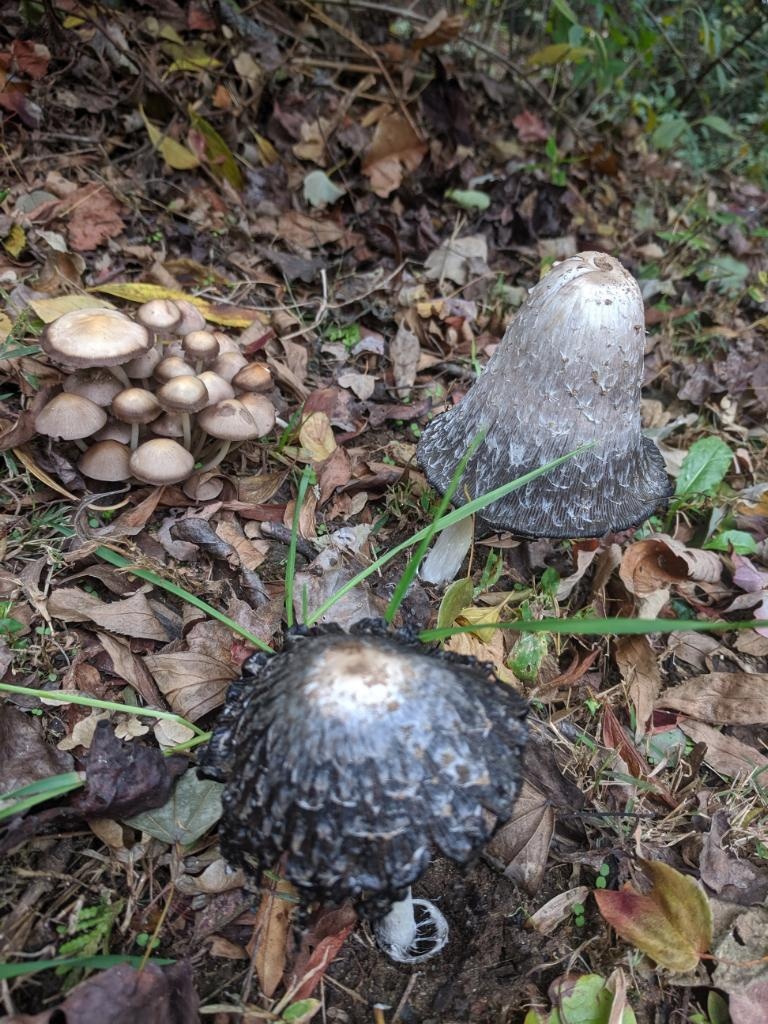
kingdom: Fungi
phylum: Basidiomycota
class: Agaricomycetes
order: Agaricales
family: Agaricaceae
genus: Coprinus
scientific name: Coprinus comatus
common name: Lawyer's wig
